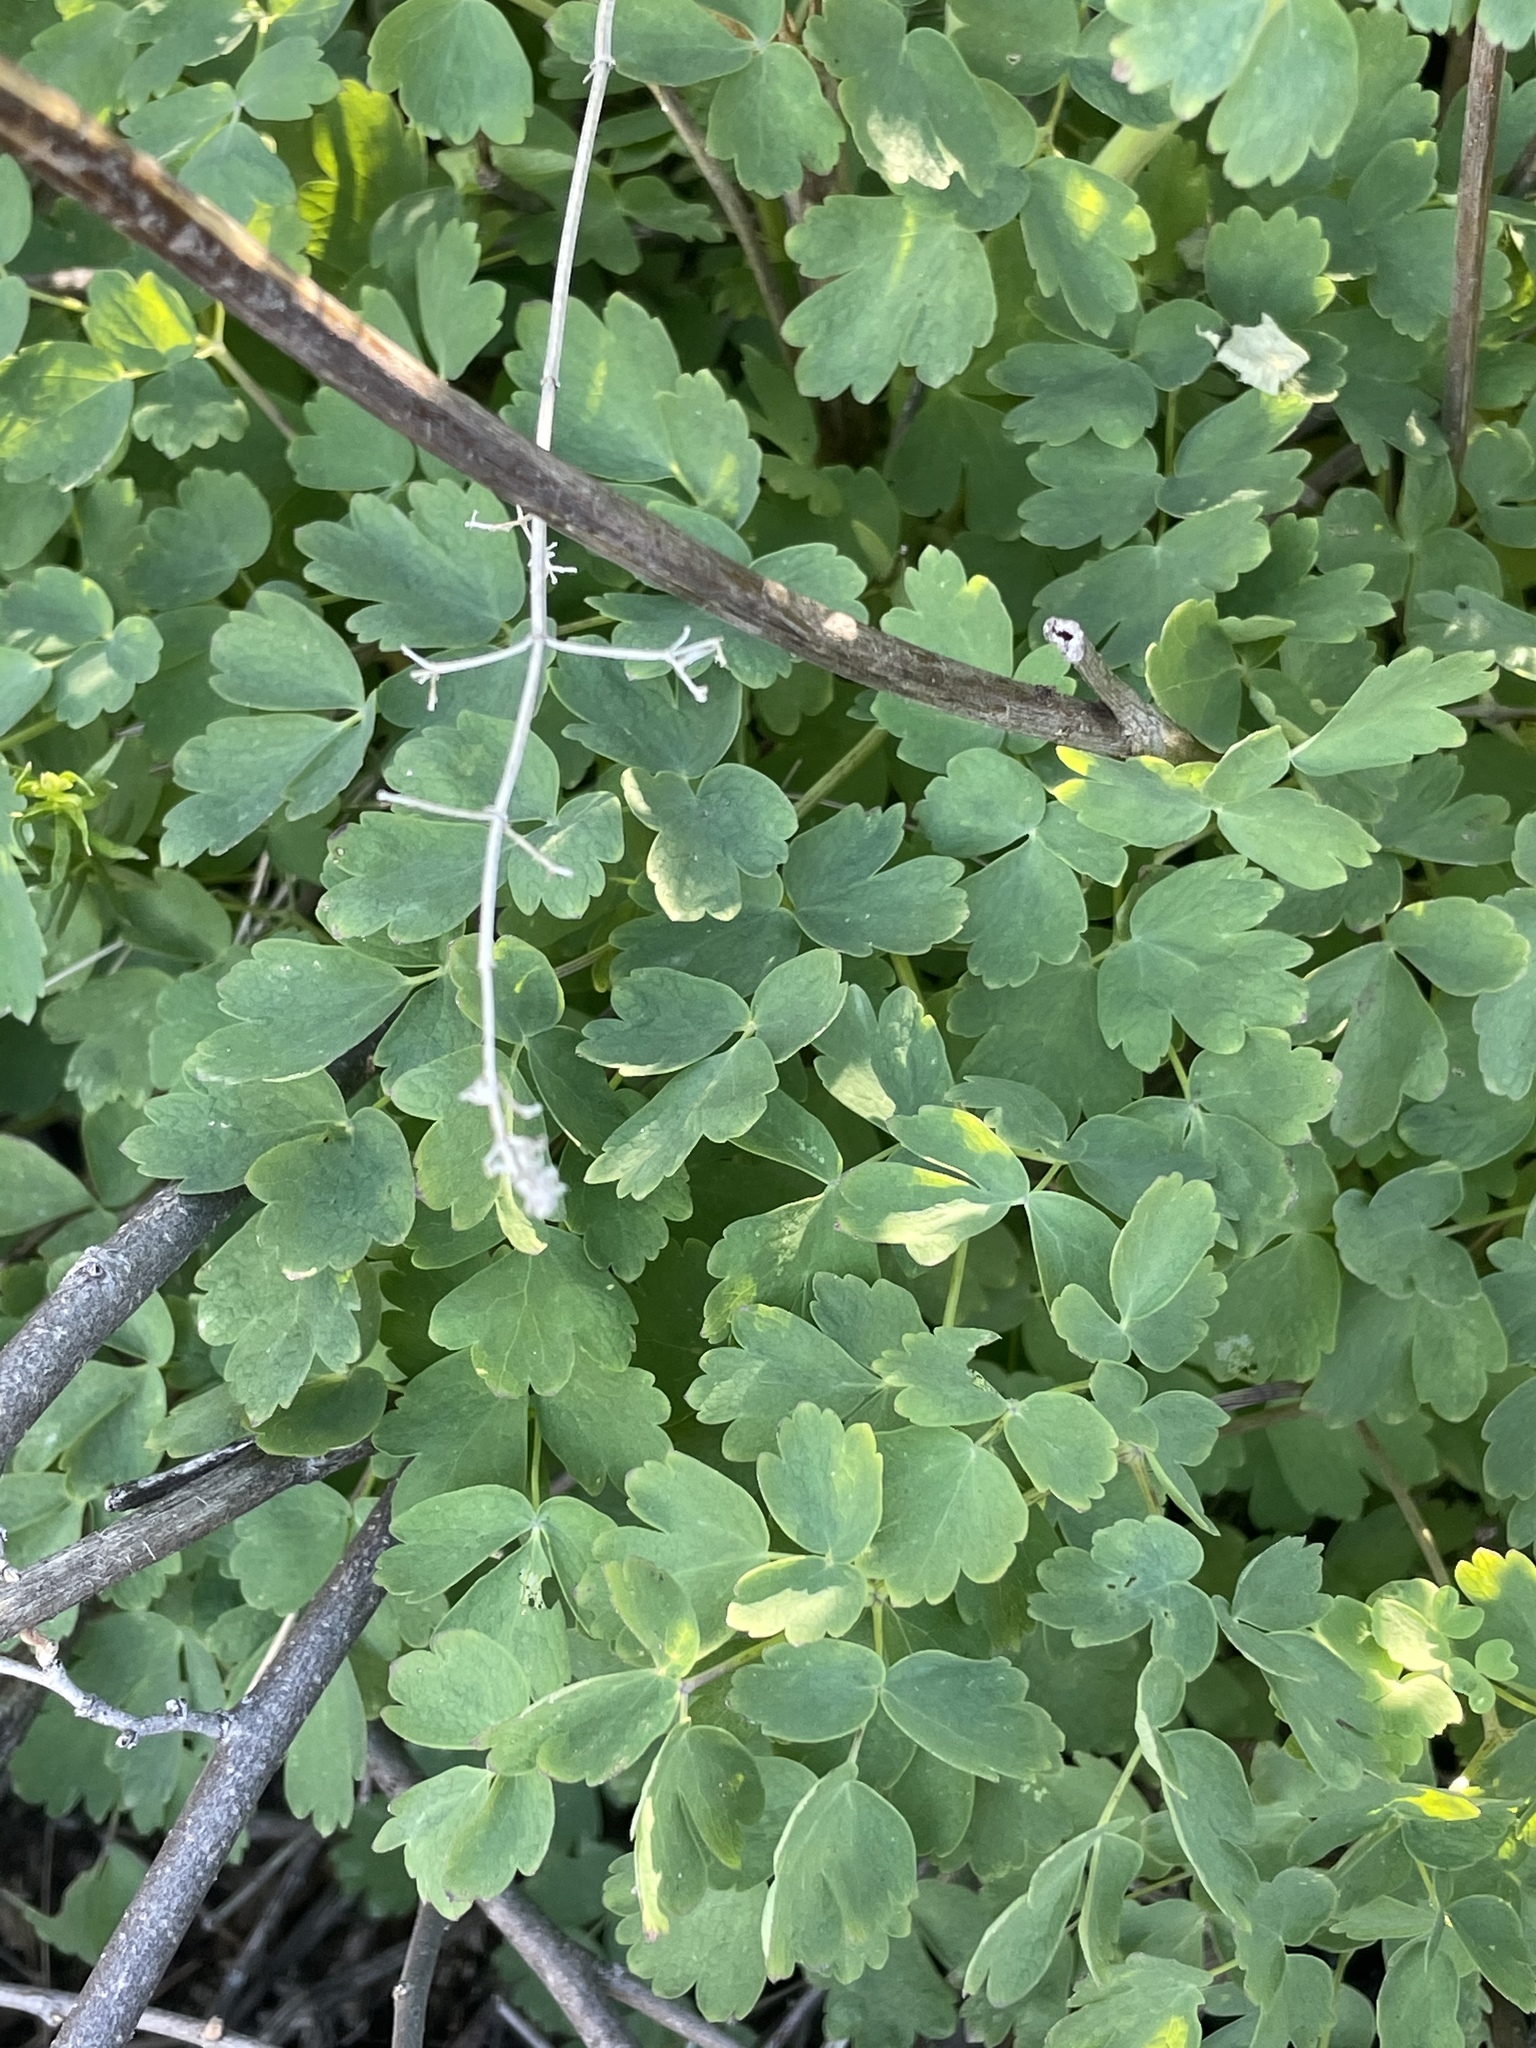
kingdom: Plantae
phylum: Tracheophyta
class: Magnoliopsida
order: Ranunculales
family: Ranunculaceae
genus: Thalictrum
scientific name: Thalictrum fendleri
